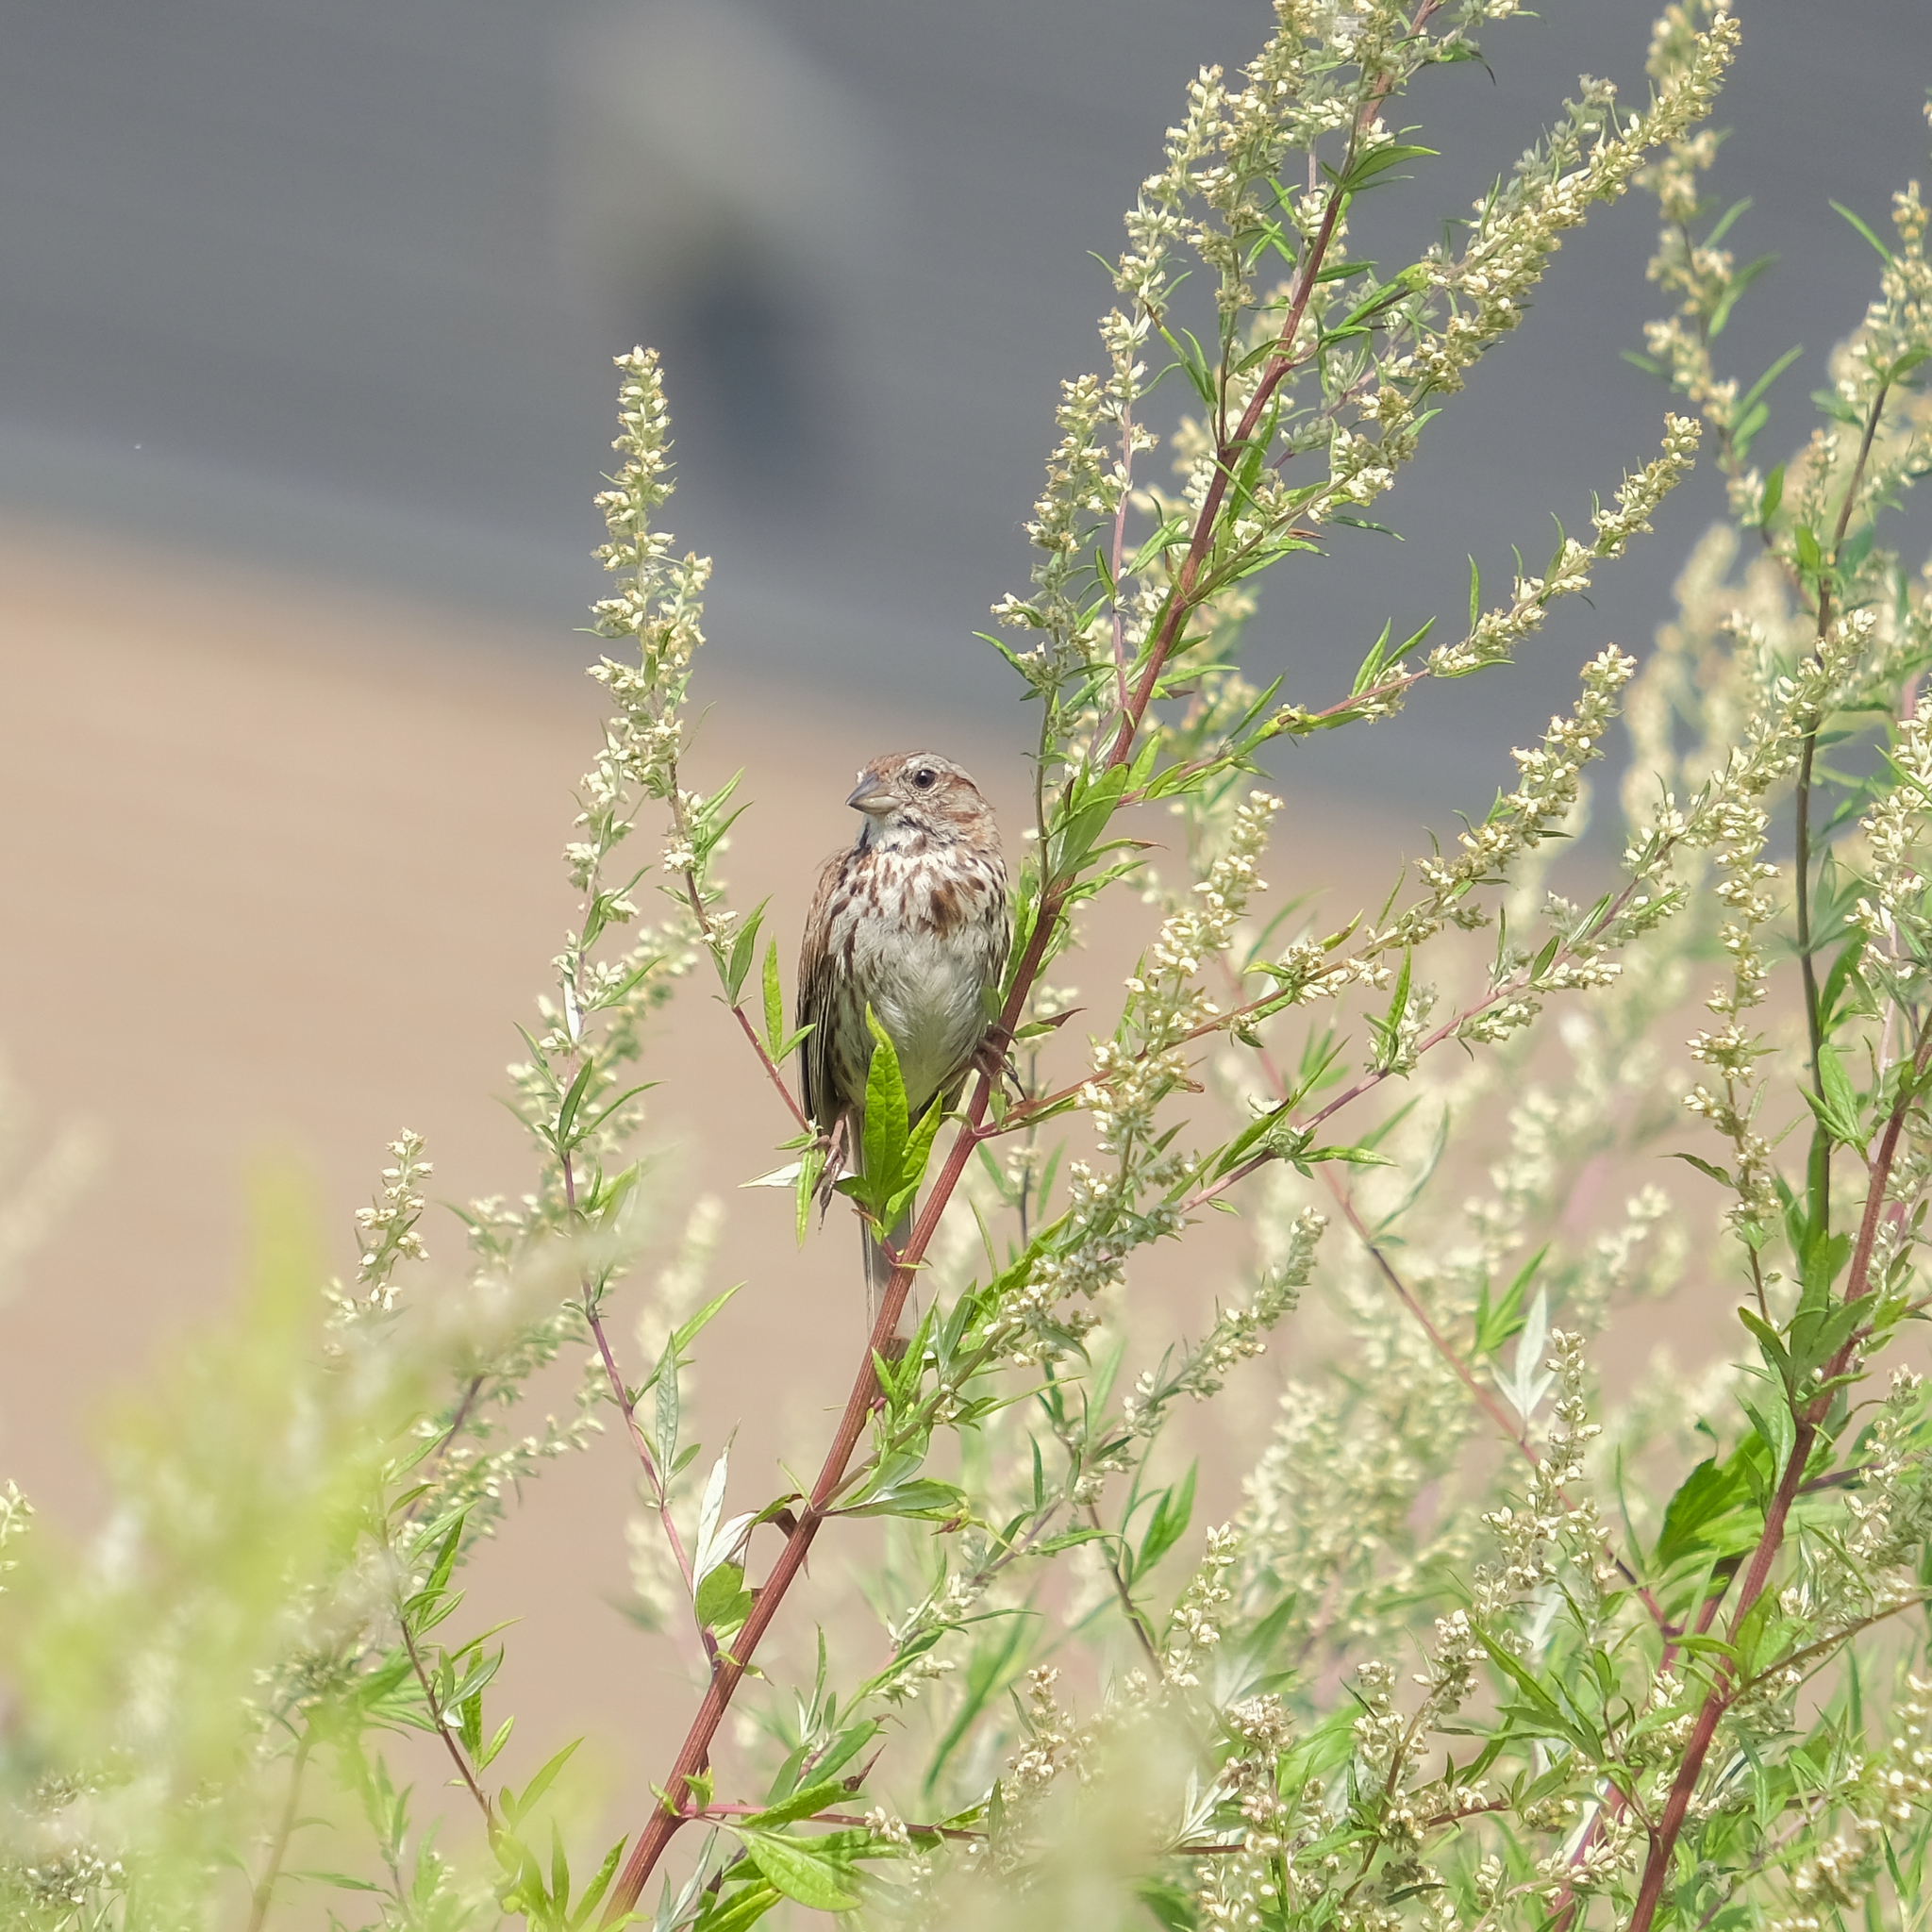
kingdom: Animalia
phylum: Chordata
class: Aves
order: Passeriformes
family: Passerellidae
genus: Melospiza
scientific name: Melospiza melodia
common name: Song sparrow
